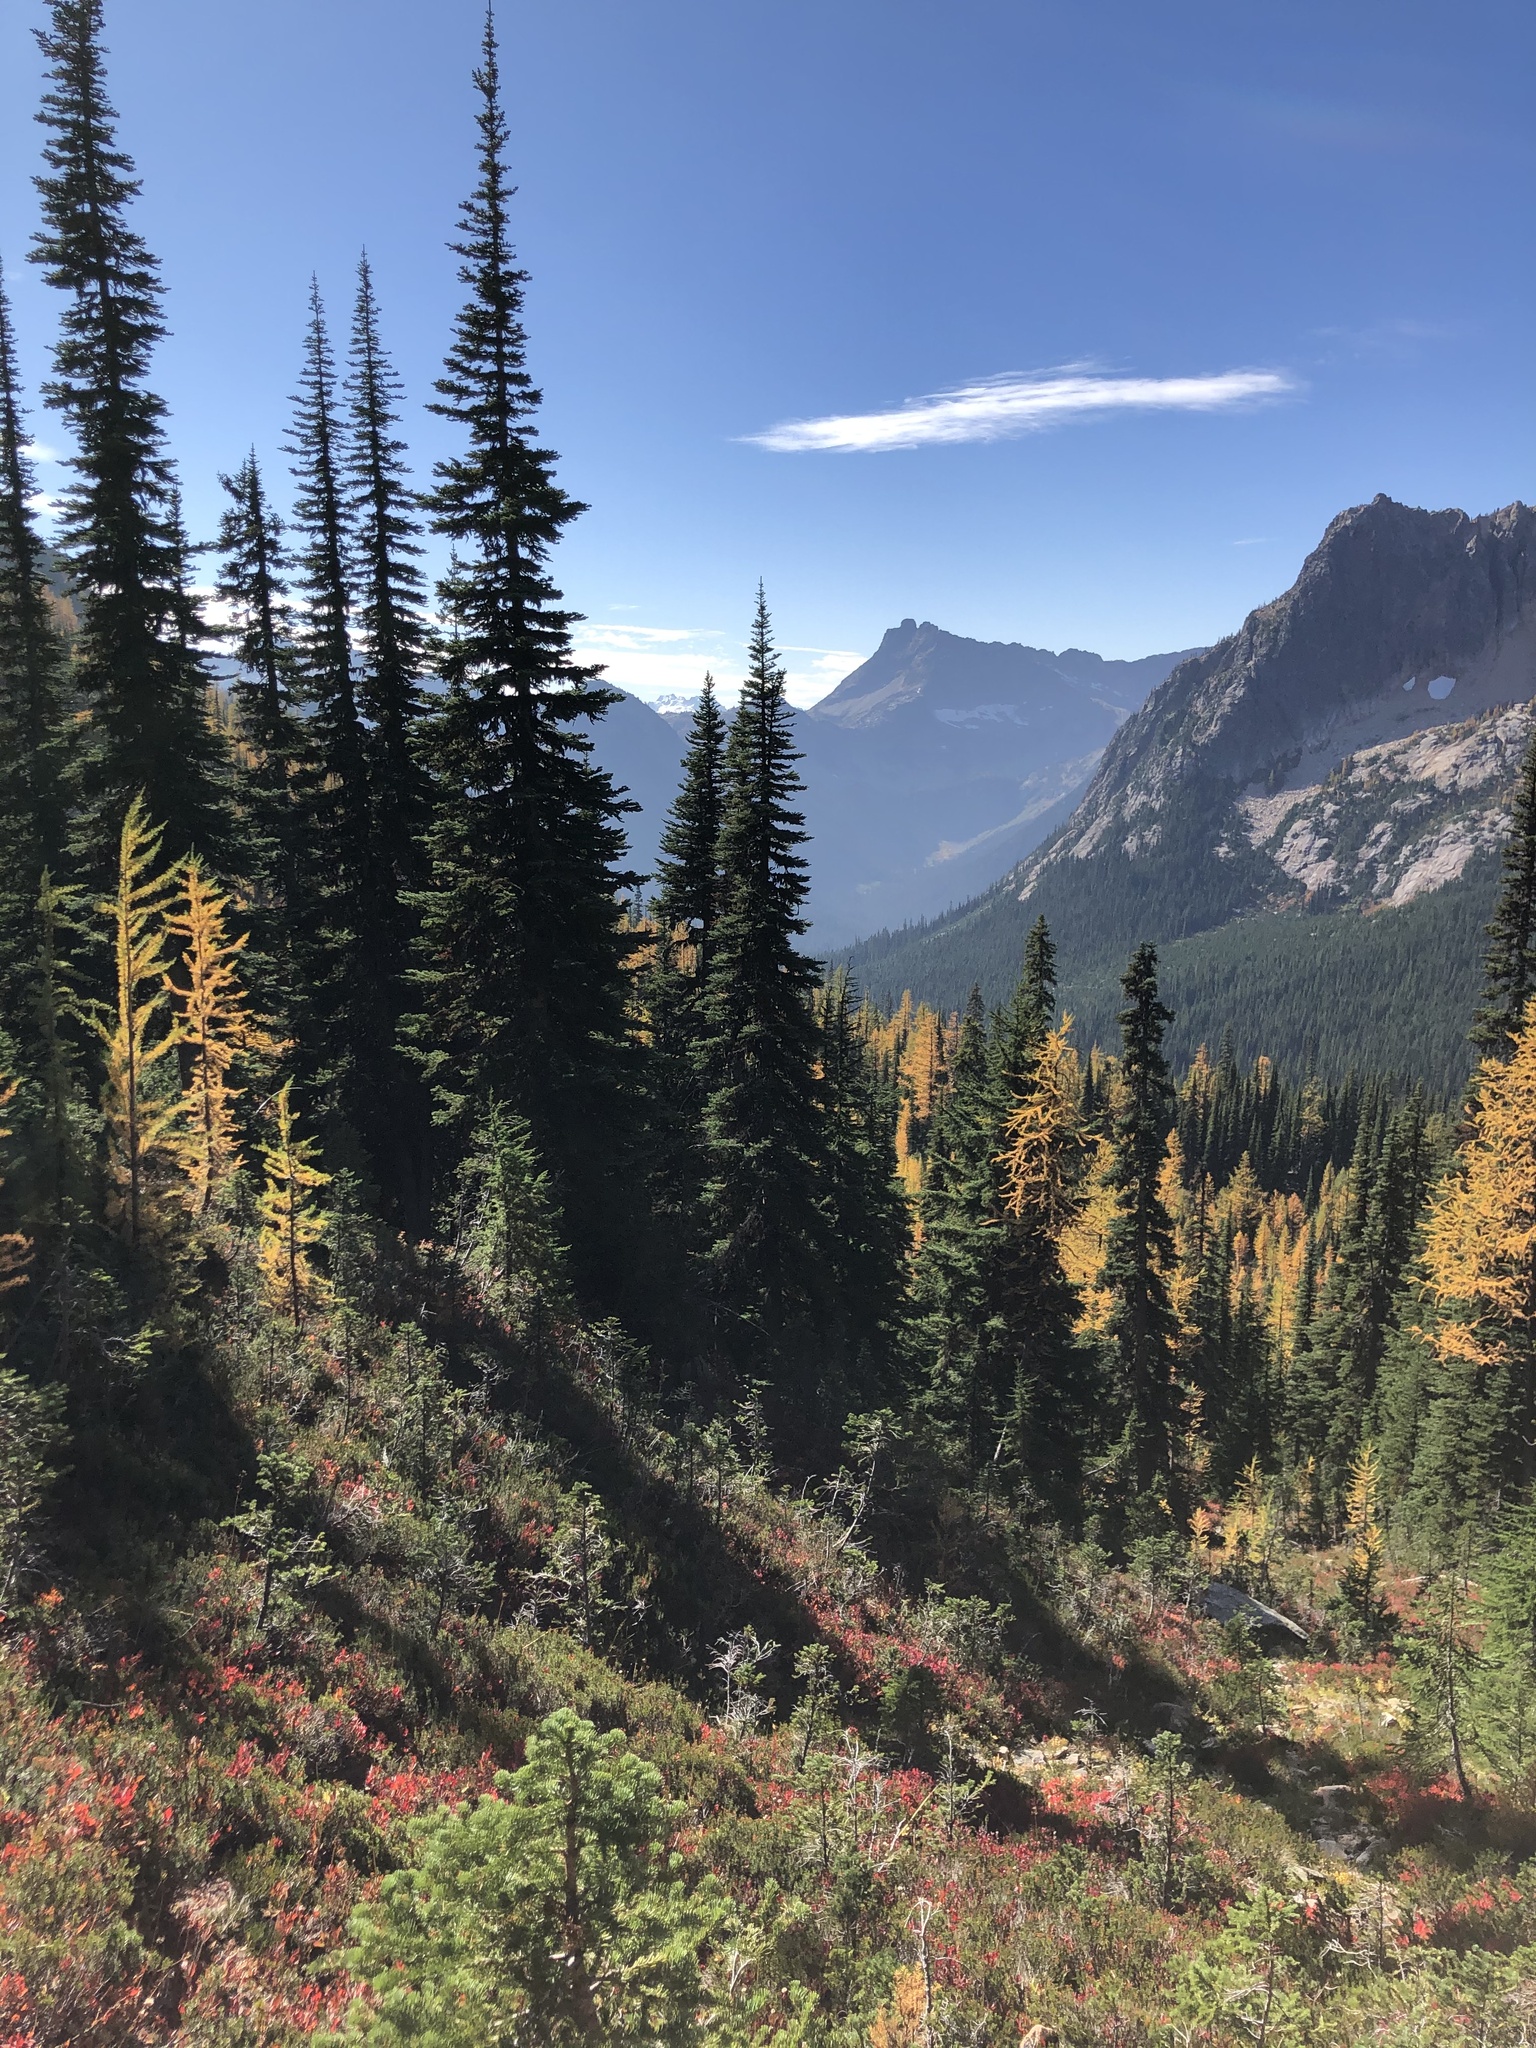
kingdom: Plantae
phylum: Tracheophyta
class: Pinopsida
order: Pinales
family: Pinaceae
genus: Abies
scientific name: Abies lasiocarpa
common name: Subalpine fir
